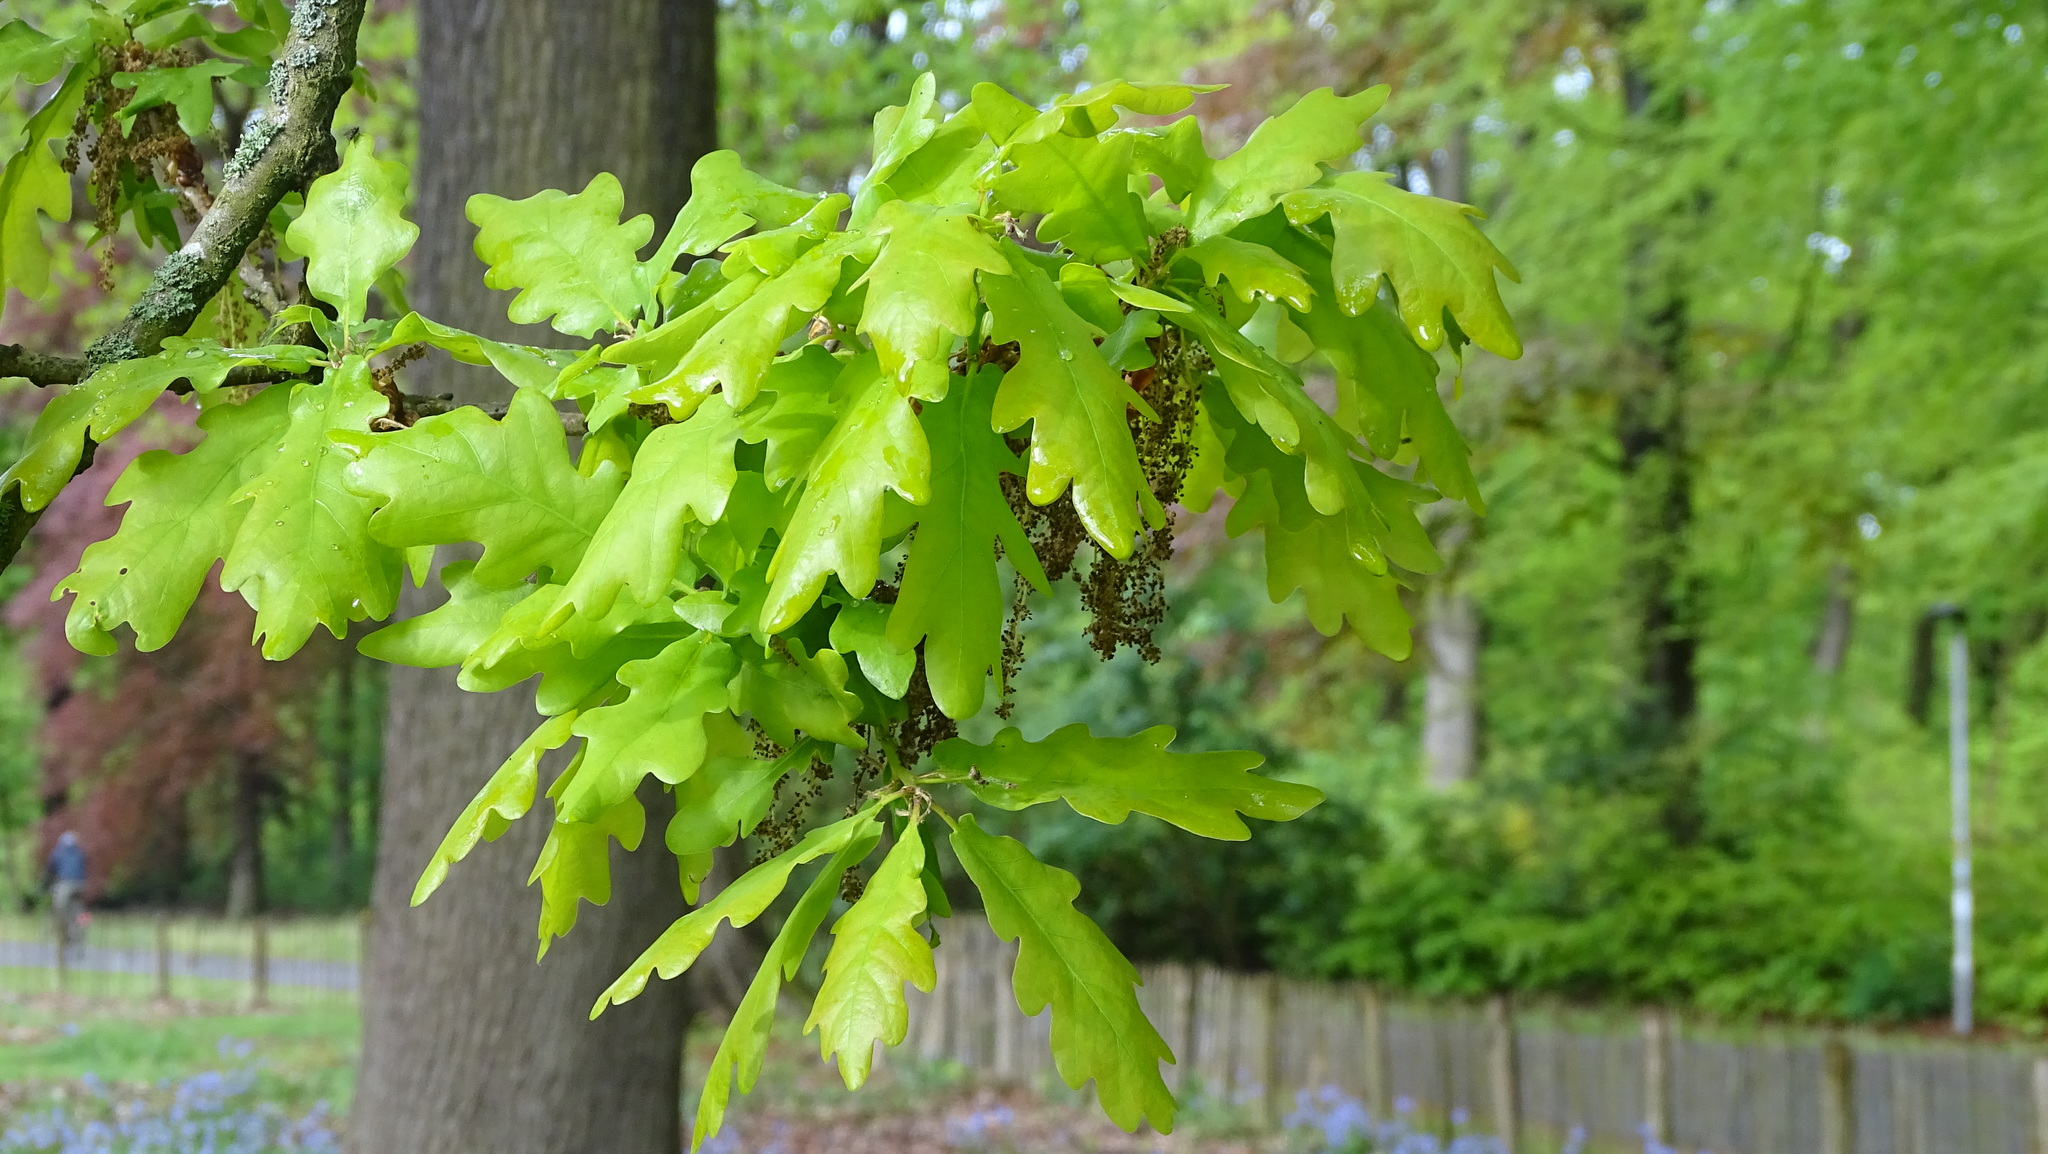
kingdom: Plantae
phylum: Tracheophyta
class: Magnoliopsida
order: Fagales
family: Fagaceae
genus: Quercus
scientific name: Quercus robur
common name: Pedunculate oak
